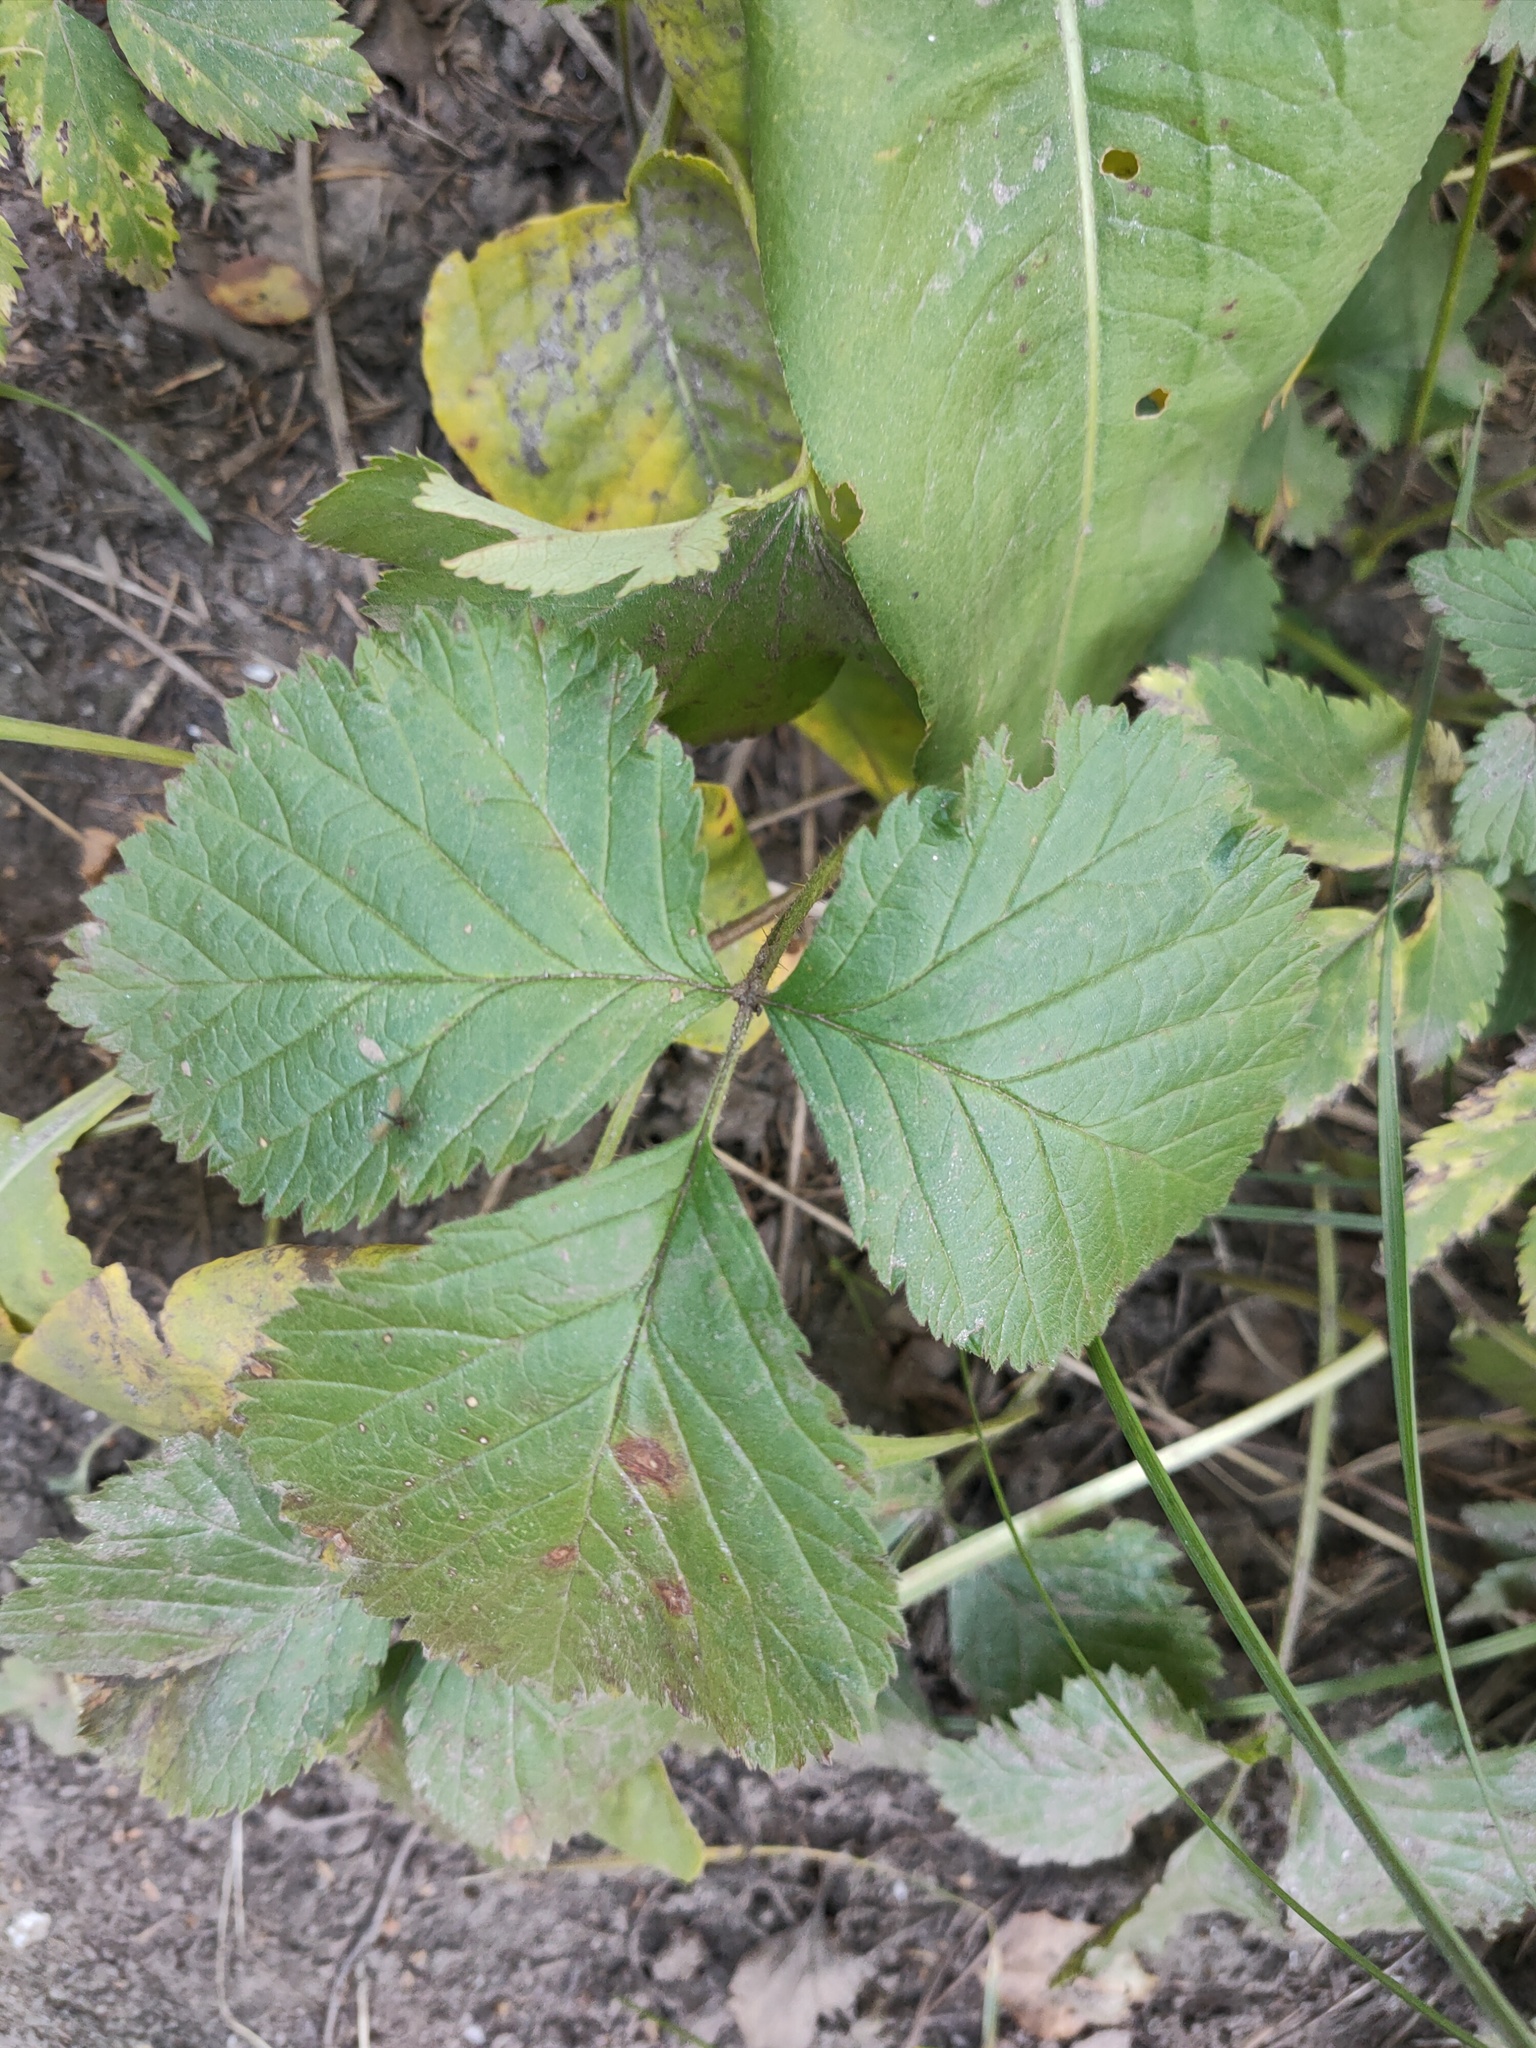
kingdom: Plantae
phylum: Tracheophyta
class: Magnoliopsida
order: Rosales
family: Rosaceae
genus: Rubus
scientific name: Rubus saxatilis
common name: Stone bramble
